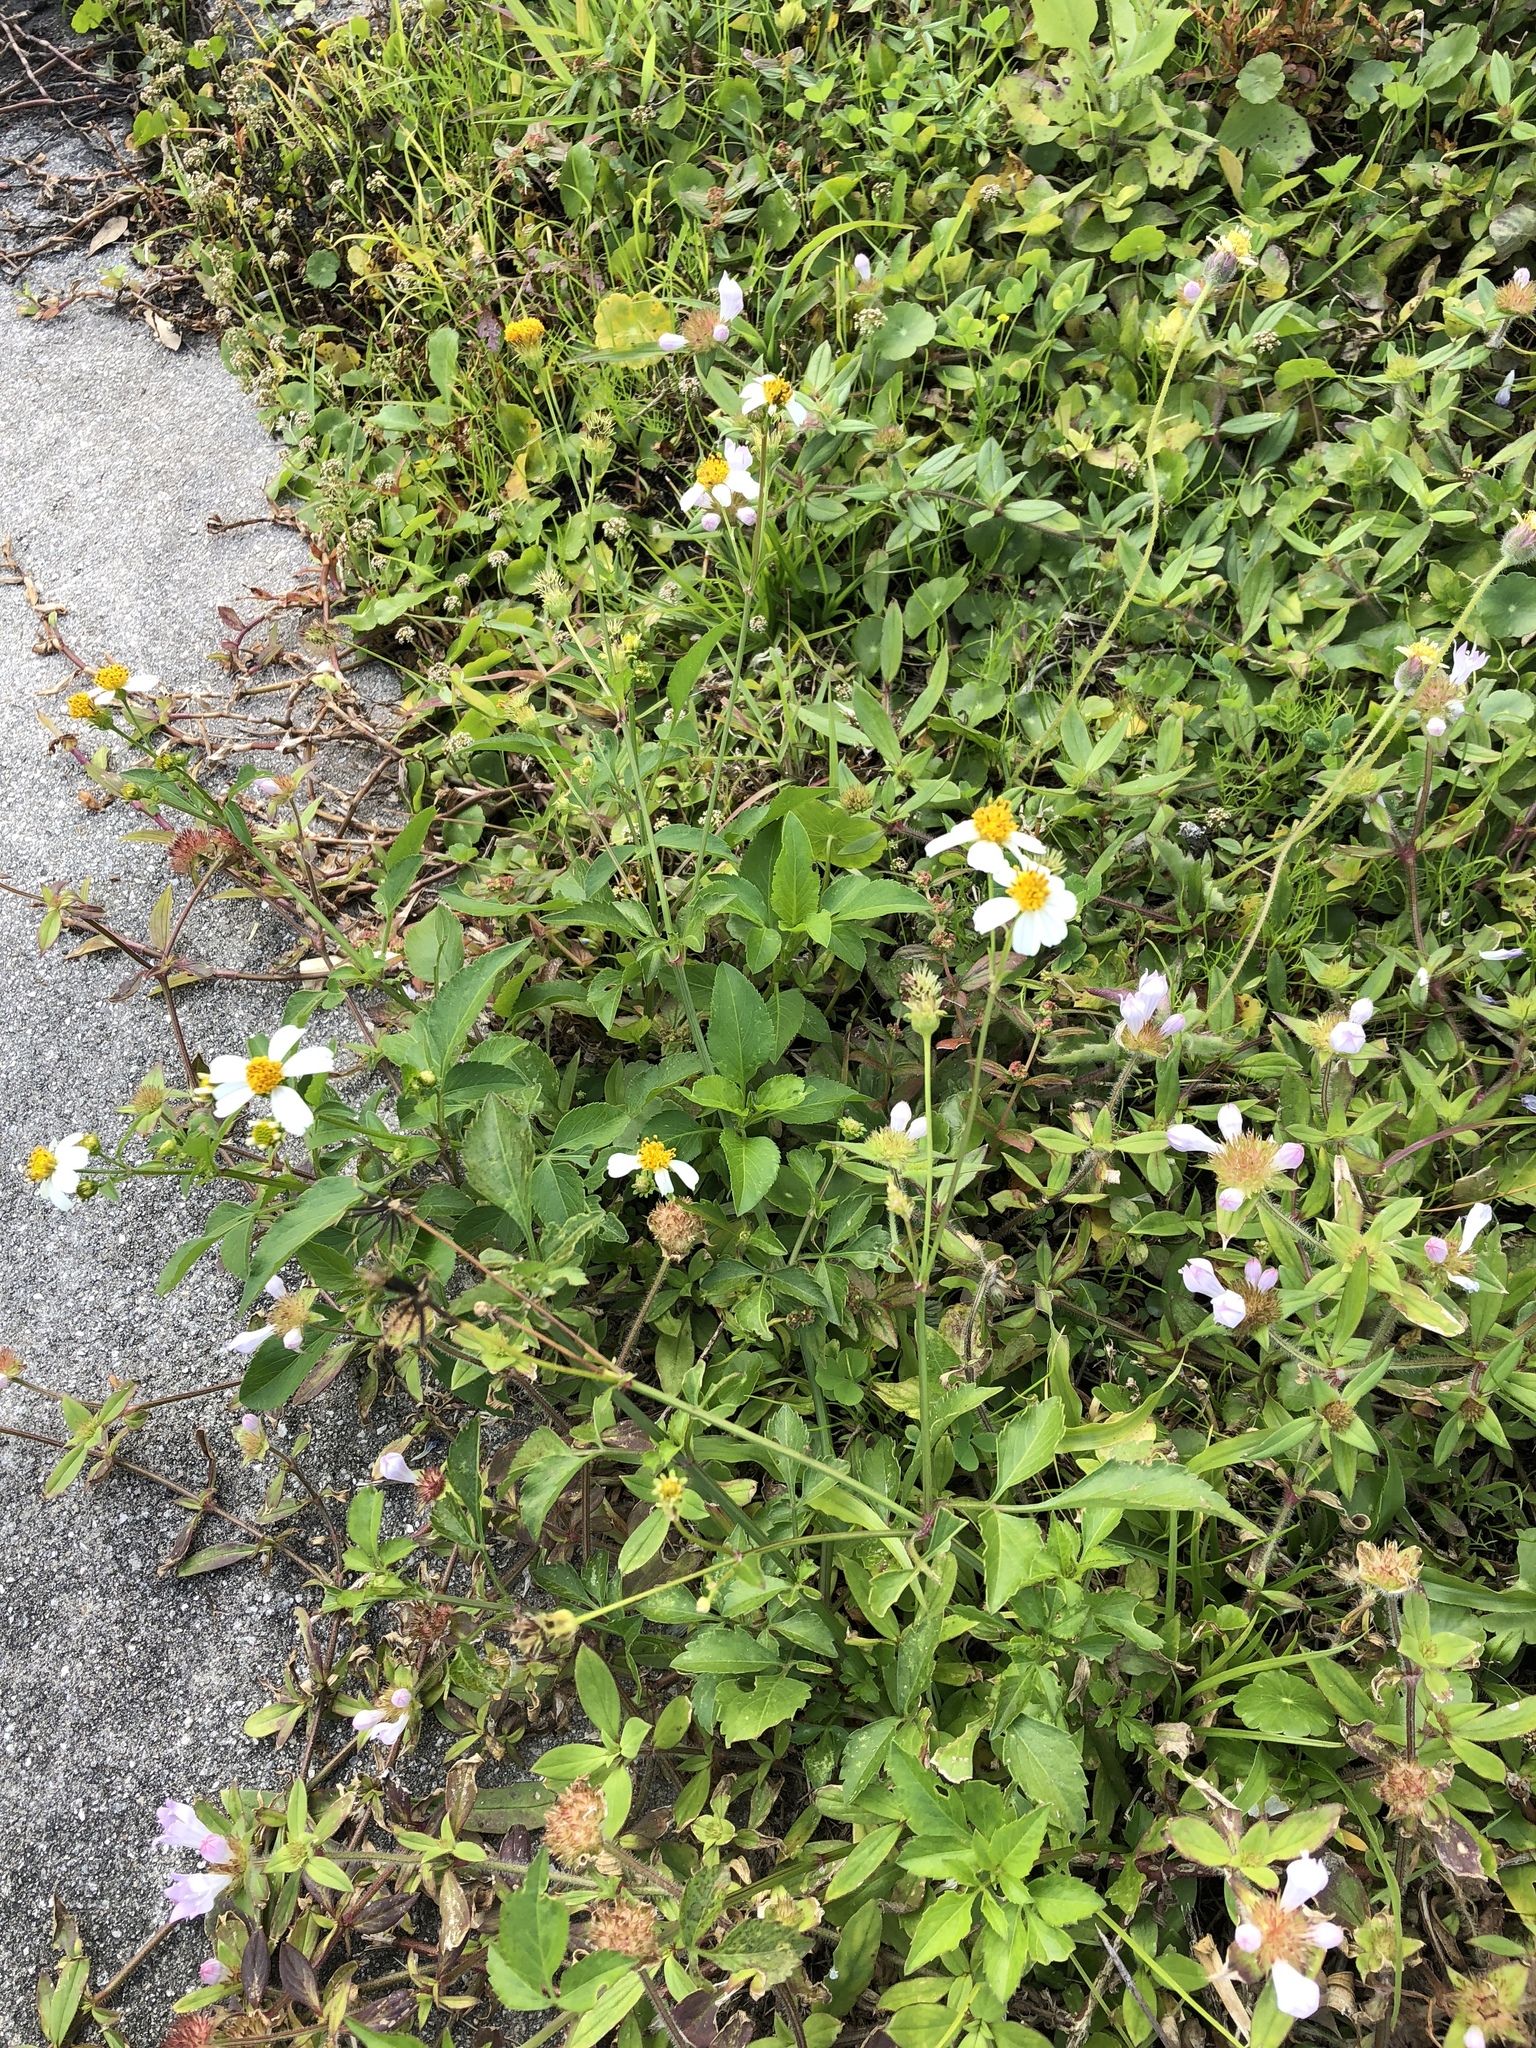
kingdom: Plantae
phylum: Tracheophyta
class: Magnoliopsida
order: Asterales
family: Asteraceae
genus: Bidens
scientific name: Bidens alba
